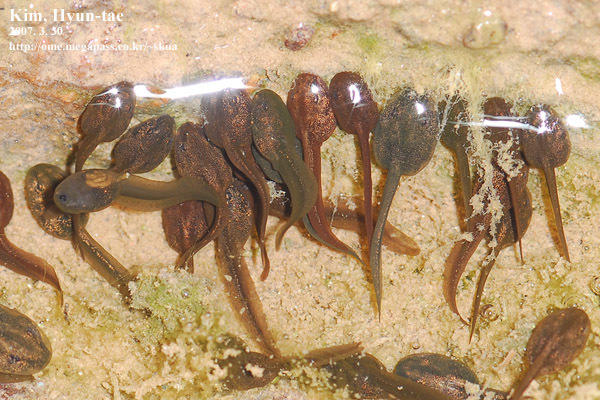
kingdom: Animalia
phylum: Chordata
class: Amphibia
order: Anura
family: Ranidae
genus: Rana
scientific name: Rana uenoi
